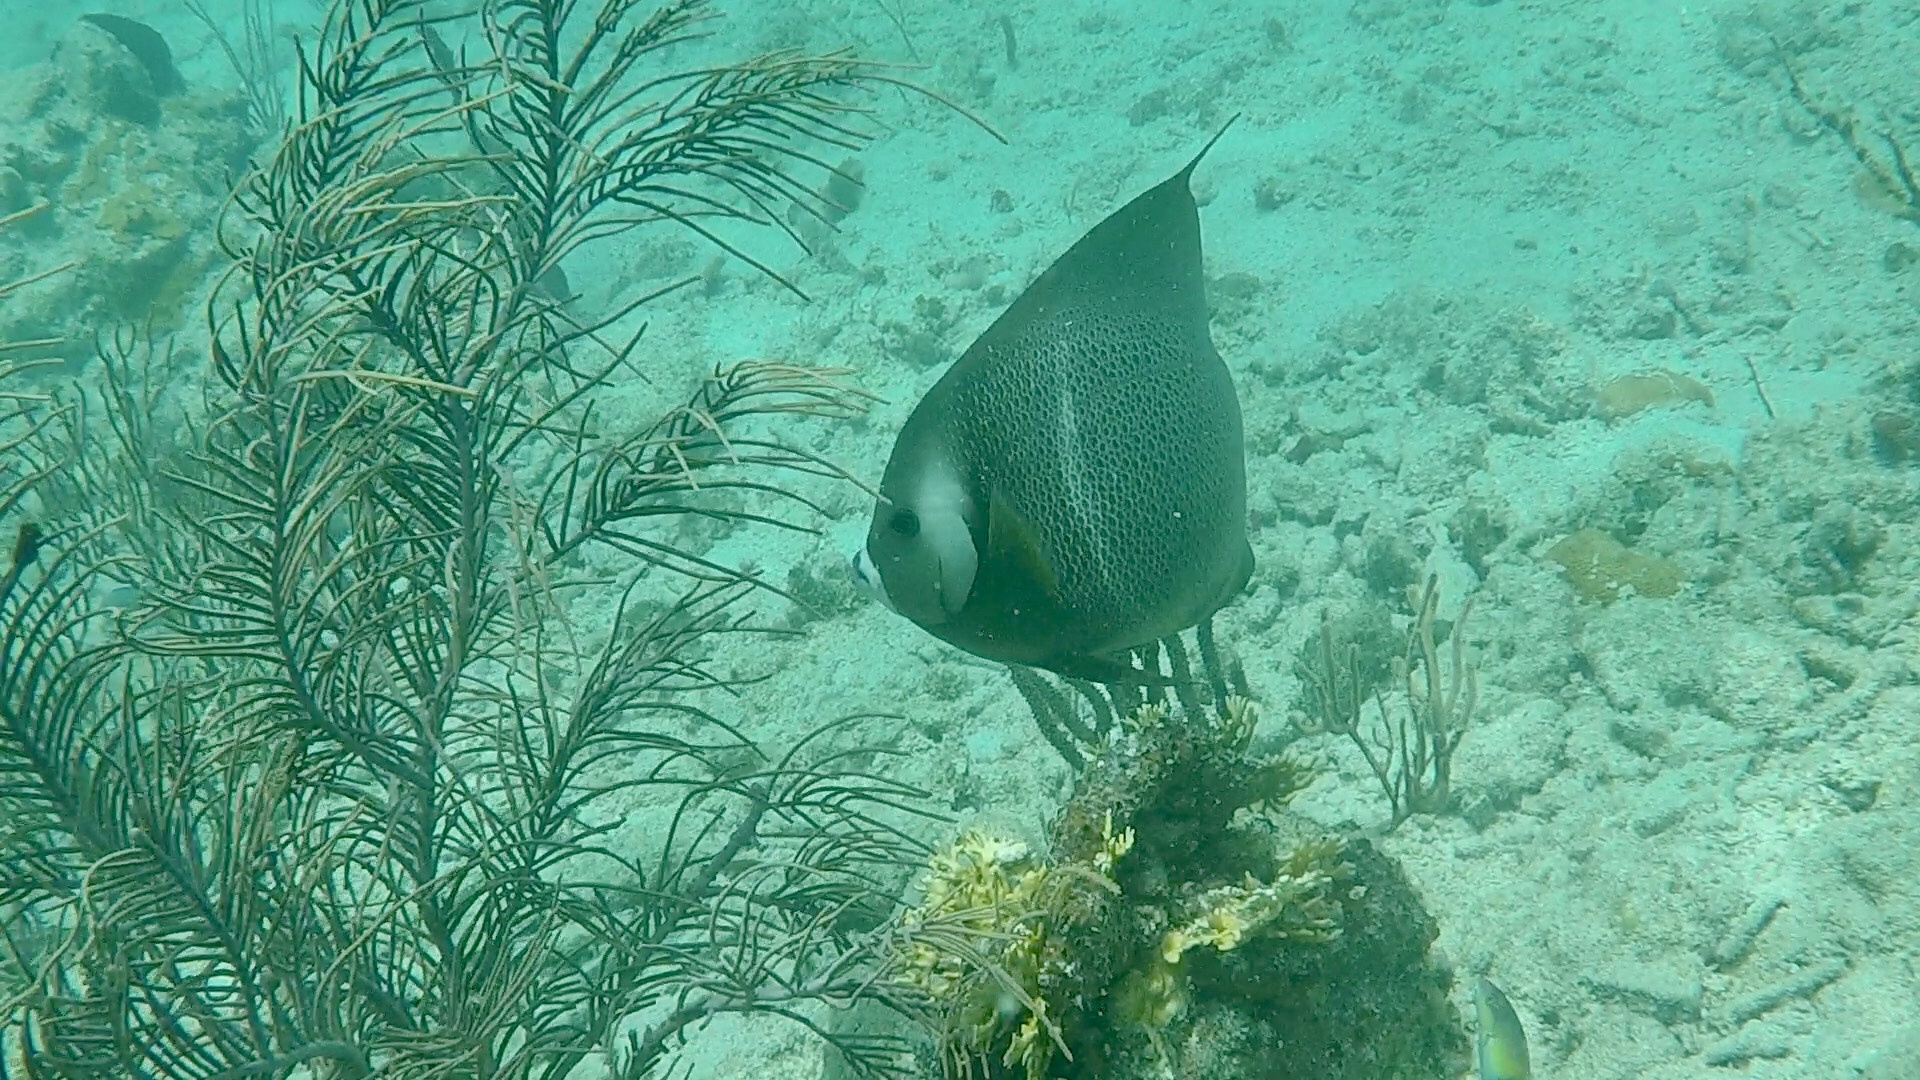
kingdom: Animalia
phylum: Chordata
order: Perciformes
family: Pomacanthidae
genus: Pomacanthus
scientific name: Pomacanthus arcuatus
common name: Gray angelfish
